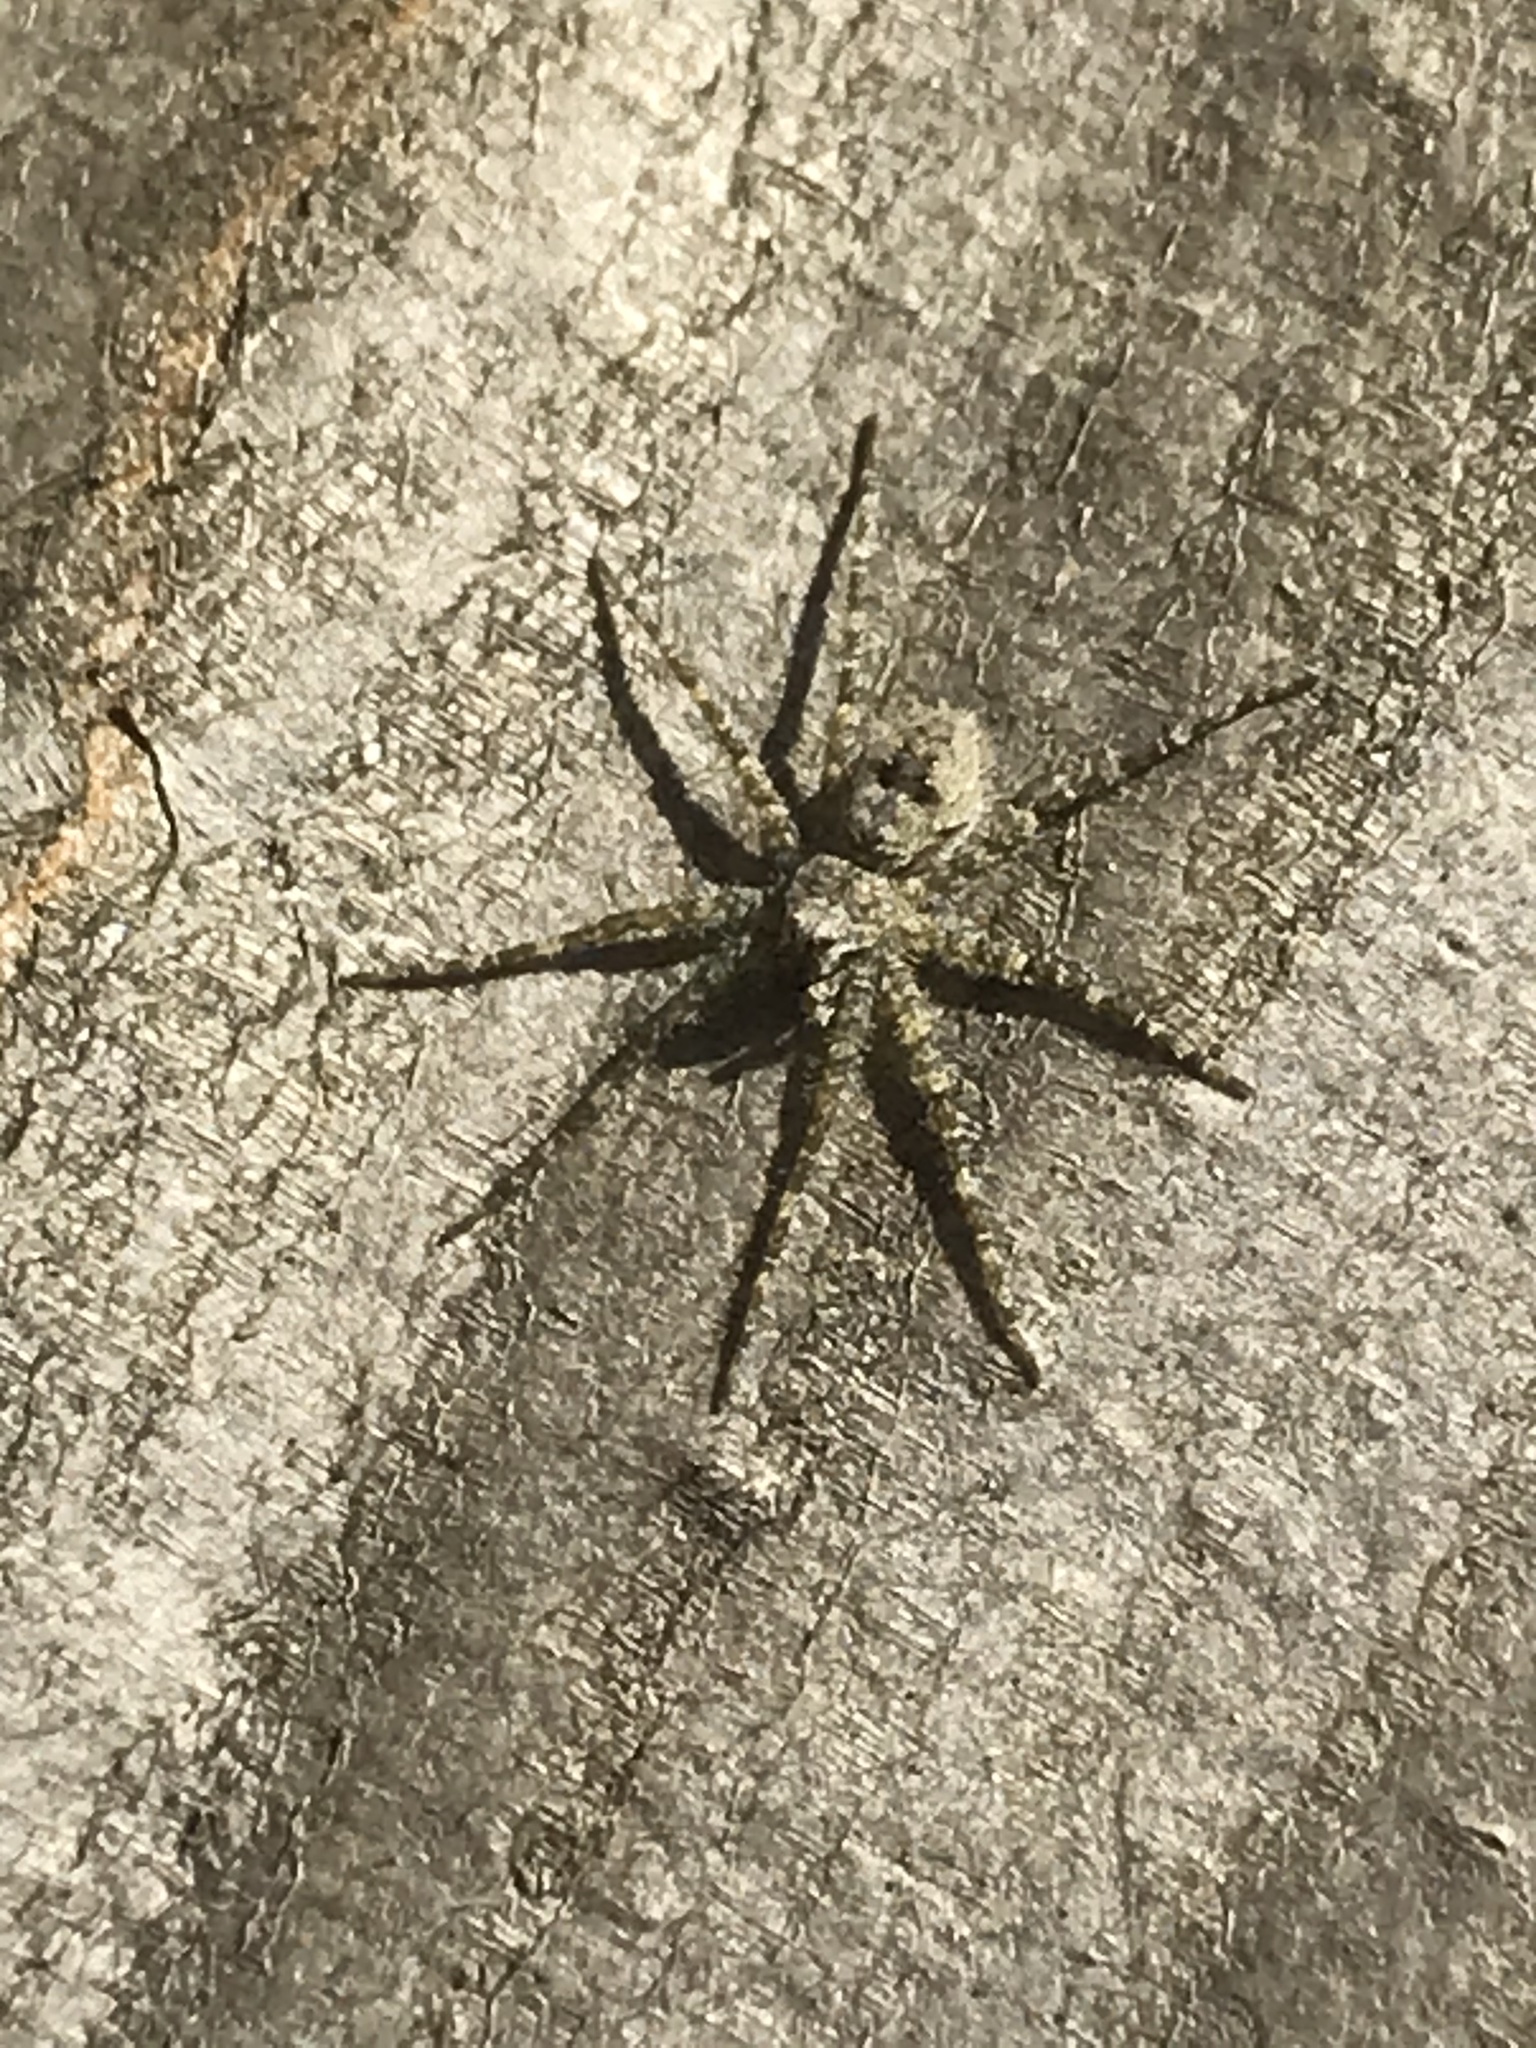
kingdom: Animalia
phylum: Arthropoda
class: Arachnida
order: Araneae
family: Pisauridae
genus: Dolomedes
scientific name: Dolomedes albineus
